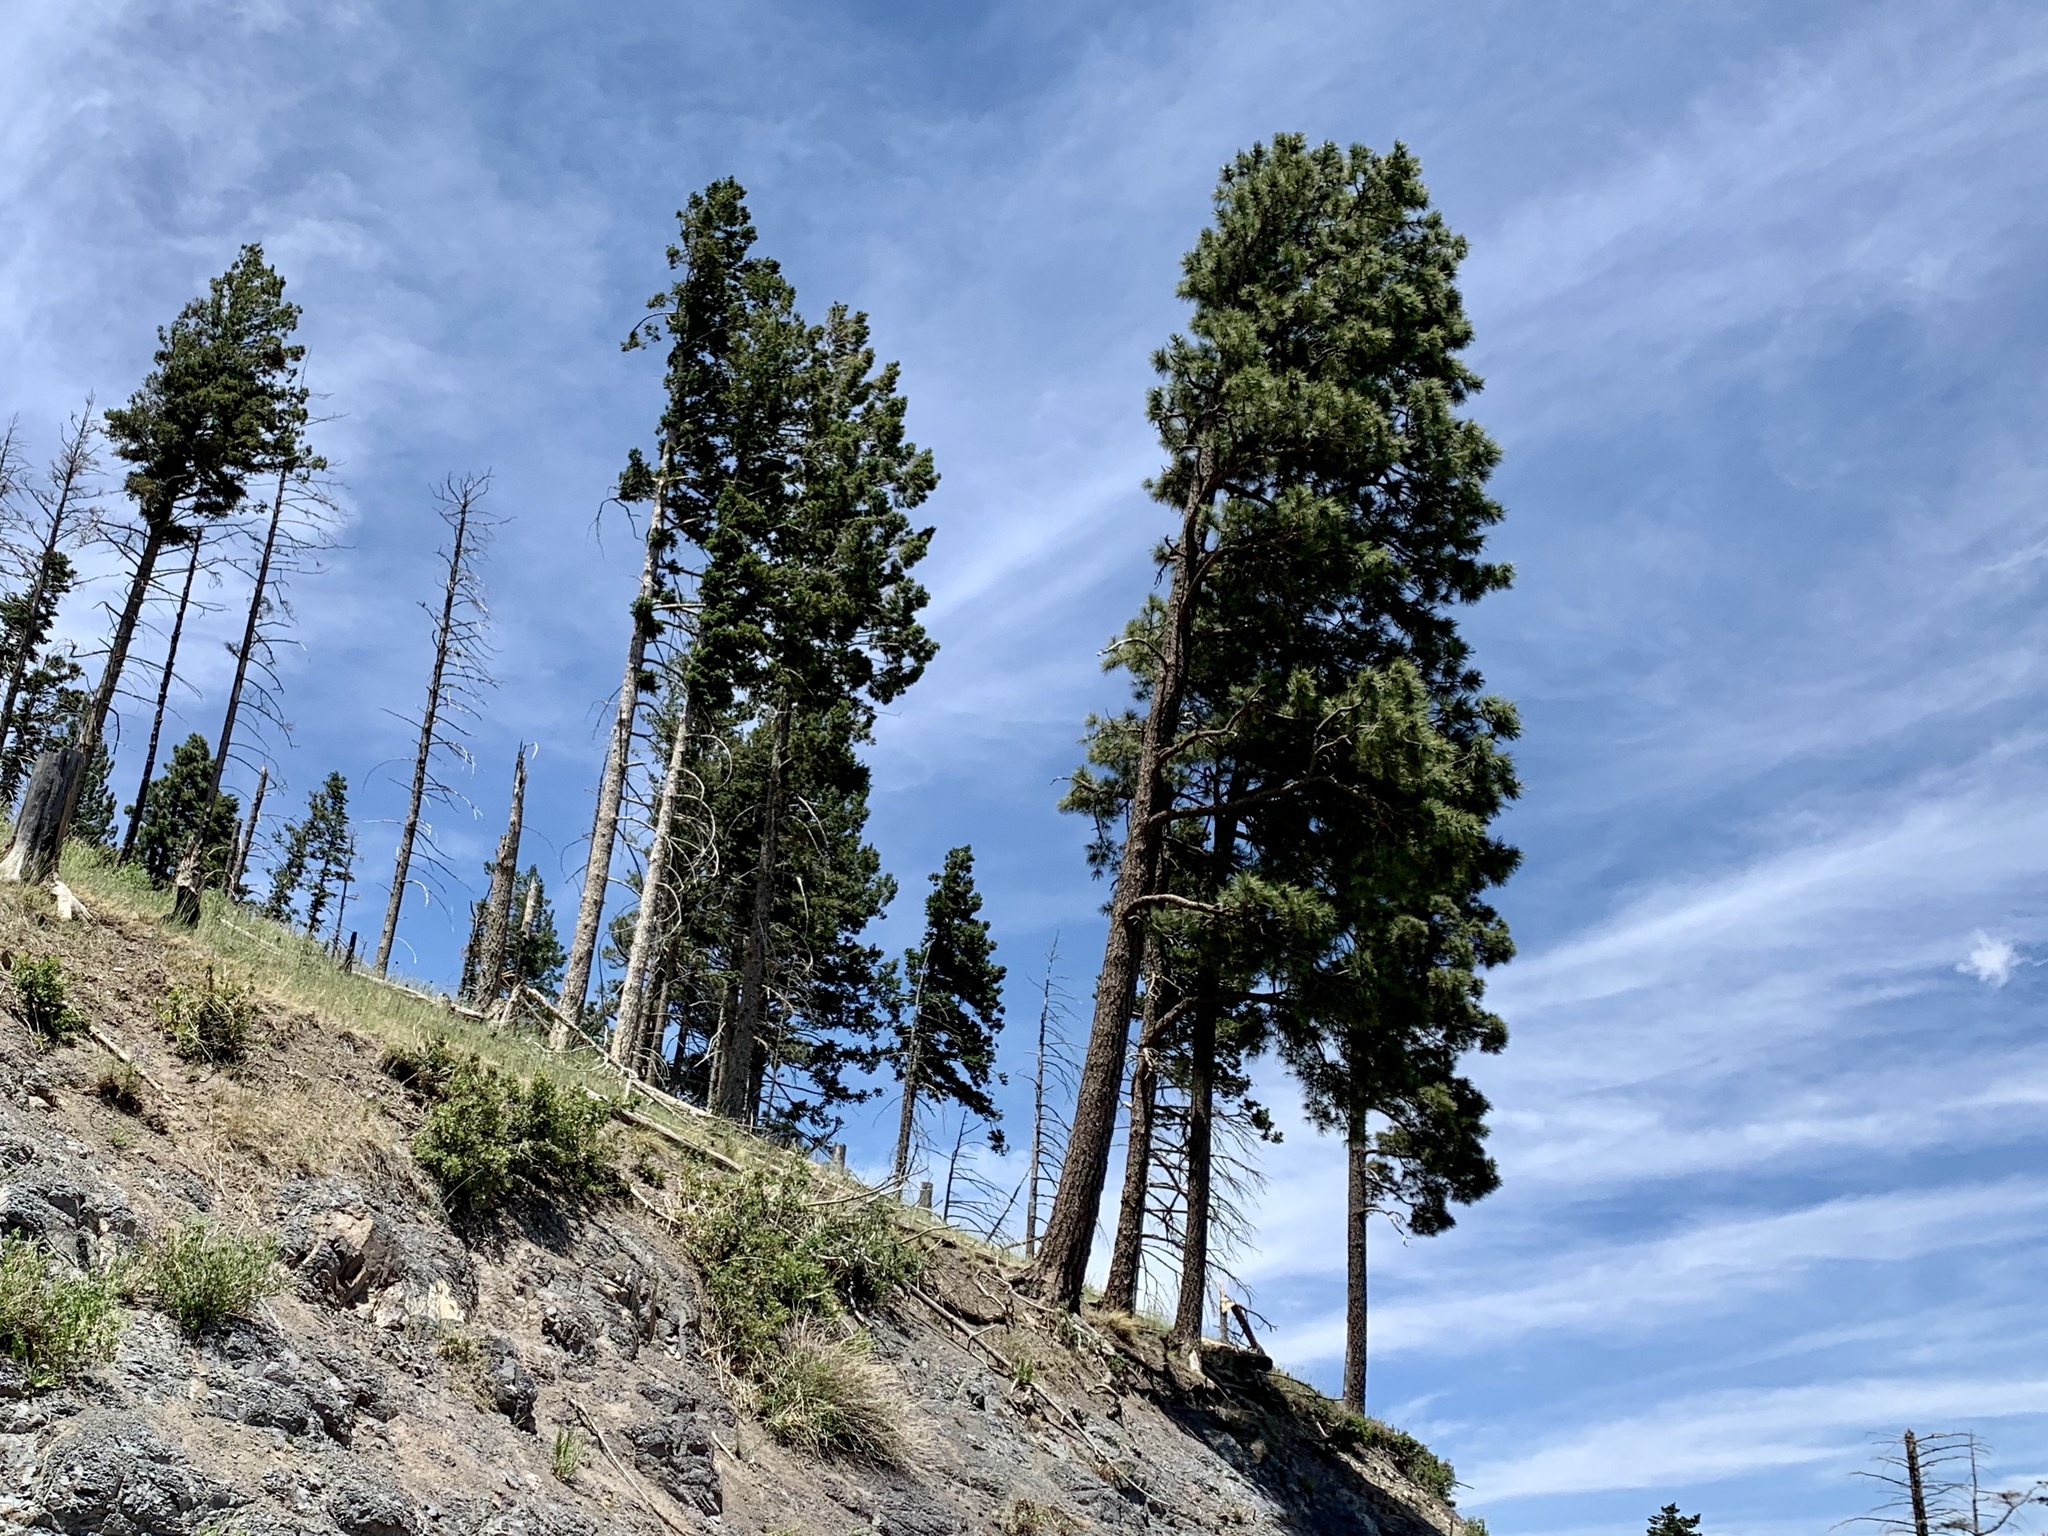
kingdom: Plantae
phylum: Tracheophyta
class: Pinopsida
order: Pinales
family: Pinaceae
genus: Pinus
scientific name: Pinus ponderosa
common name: Western yellow-pine
